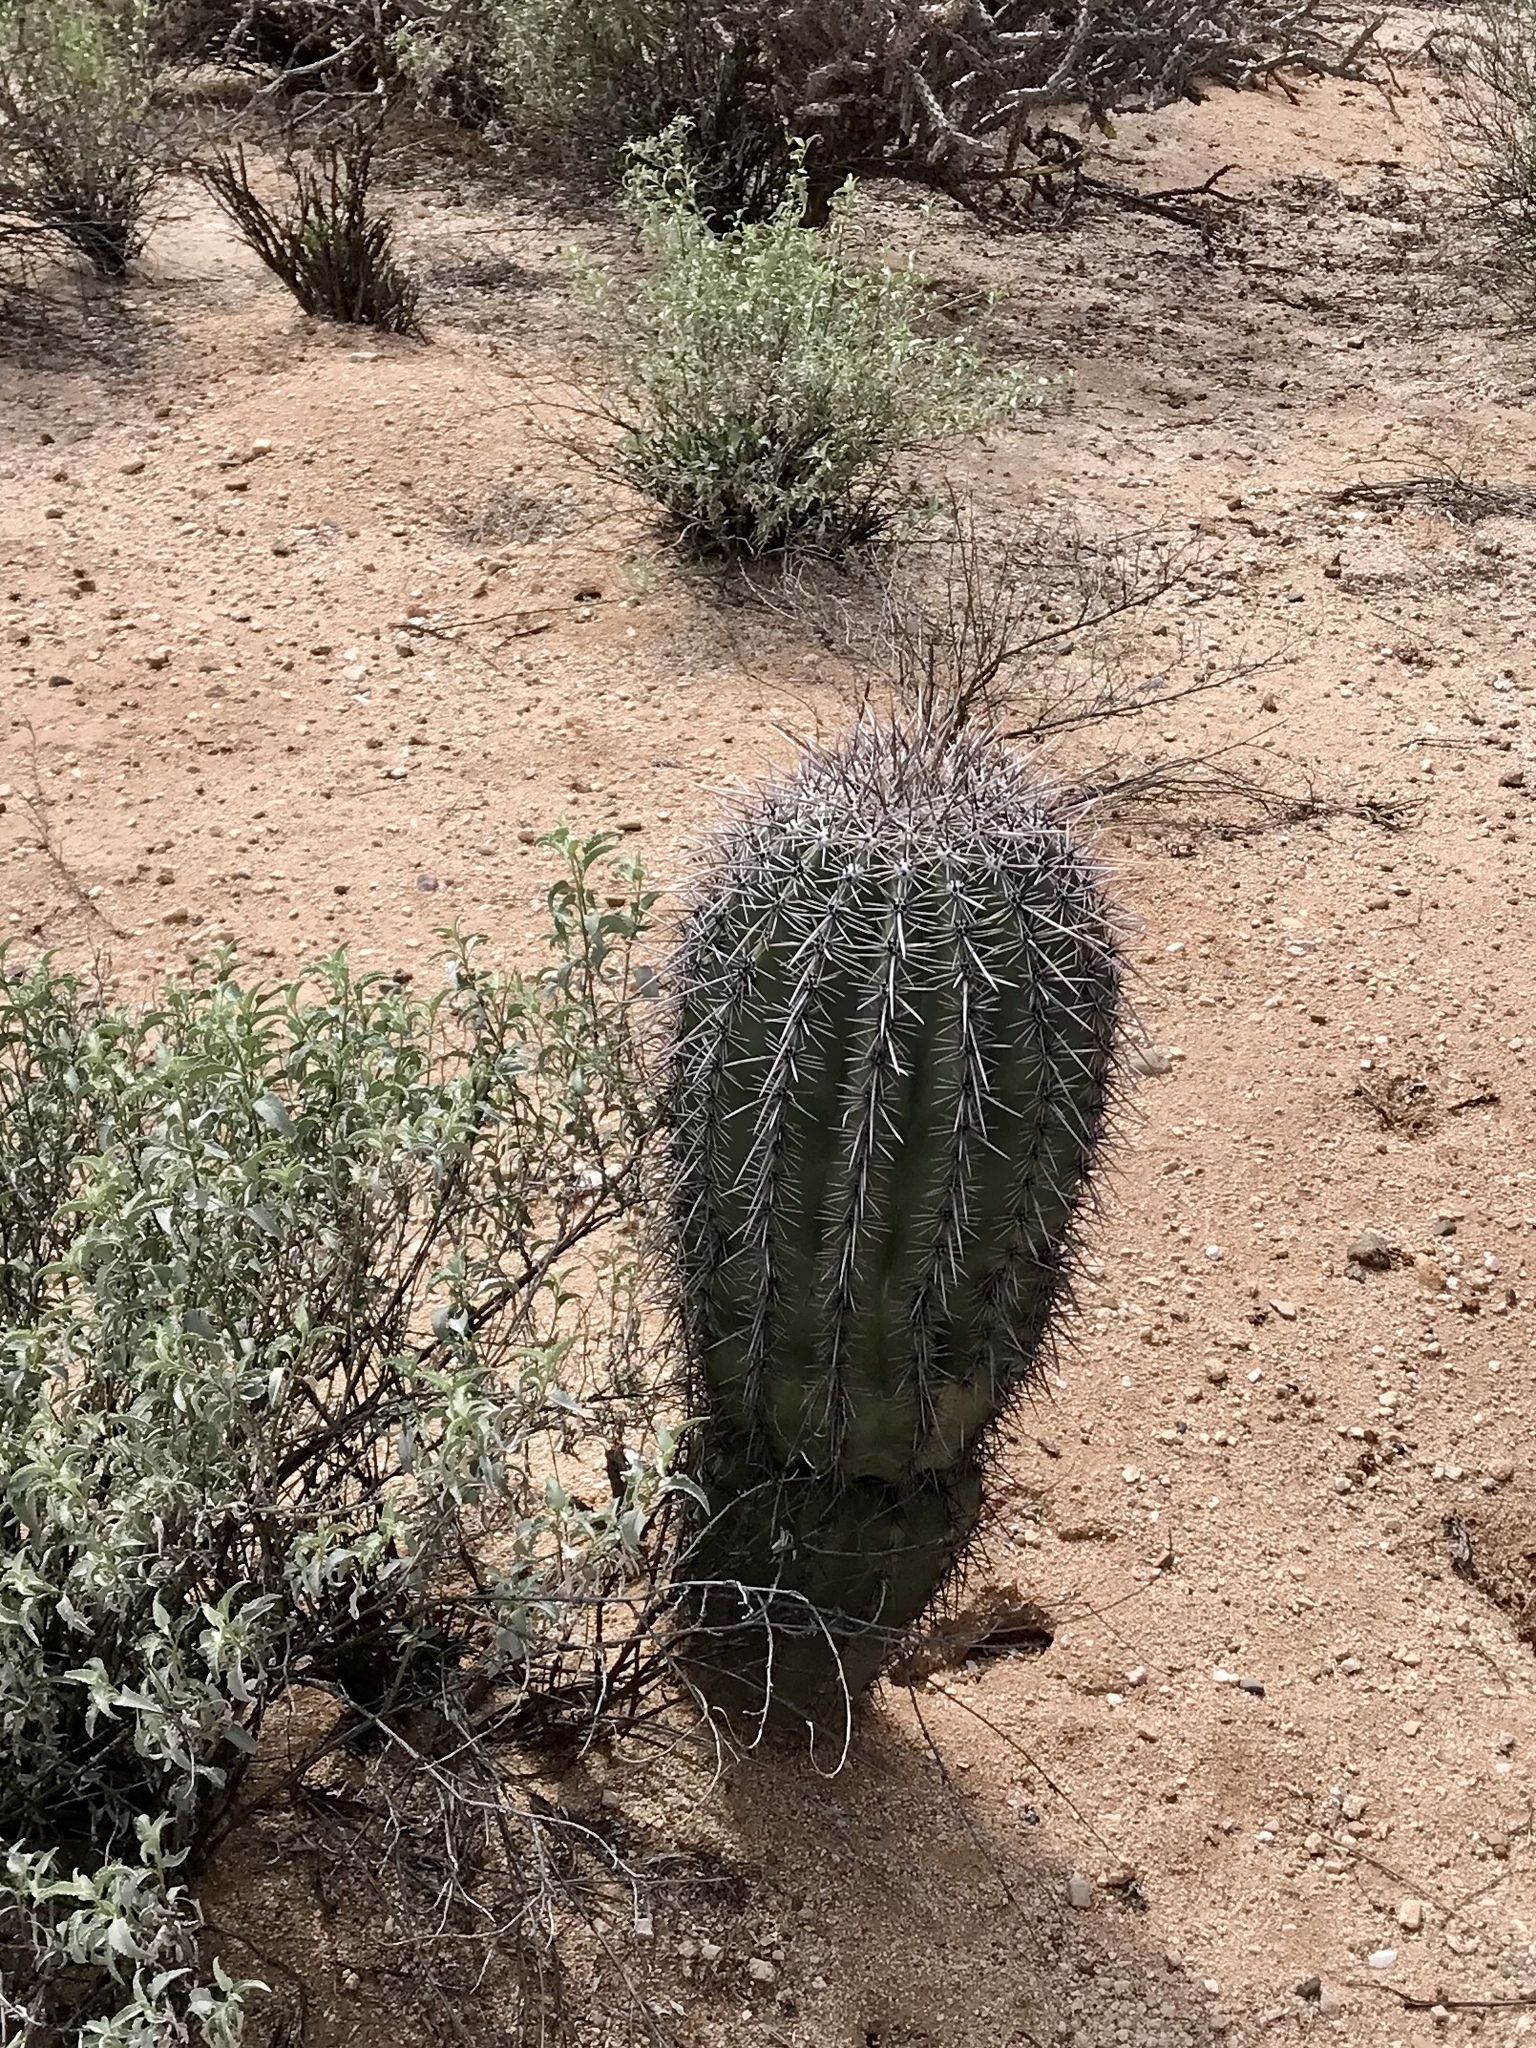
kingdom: Plantae
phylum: Tracheophyta
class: Magnoliopsida
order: Caryophyllales
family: Cactaceae
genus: Carnegiea
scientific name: Carnegiea gigantea
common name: Saguaro
